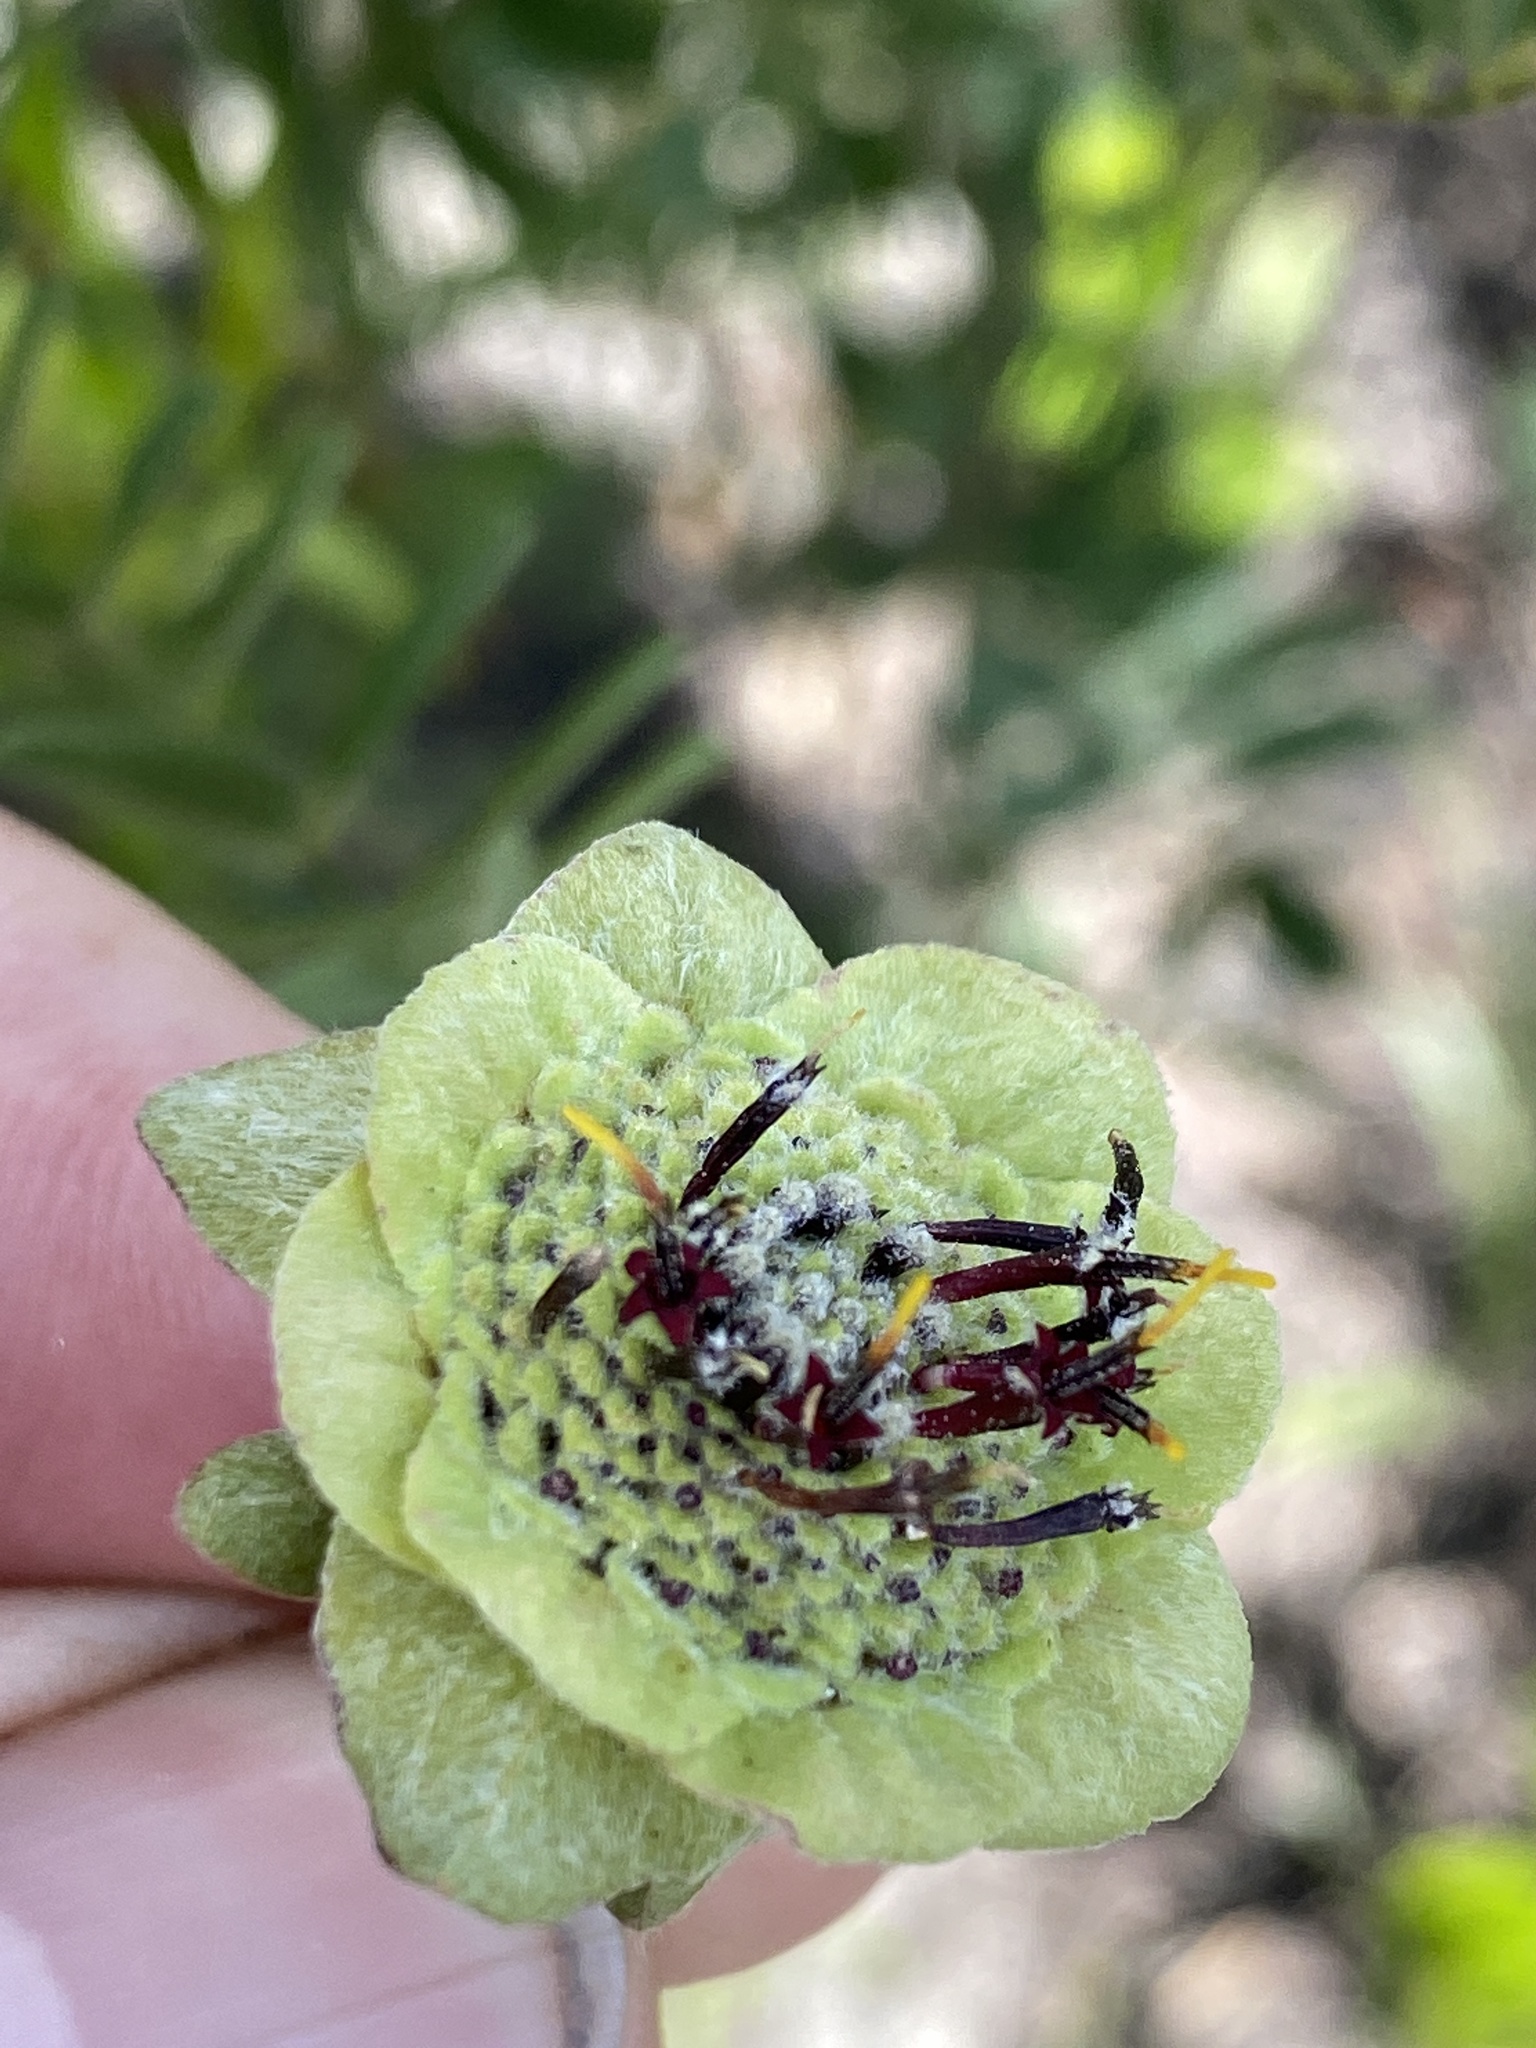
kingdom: Plantae
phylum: Tracheophyta
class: Magnoliopsida
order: Asterales
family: Asteraceae
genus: Berlandiera
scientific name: Berlandiera pumila
